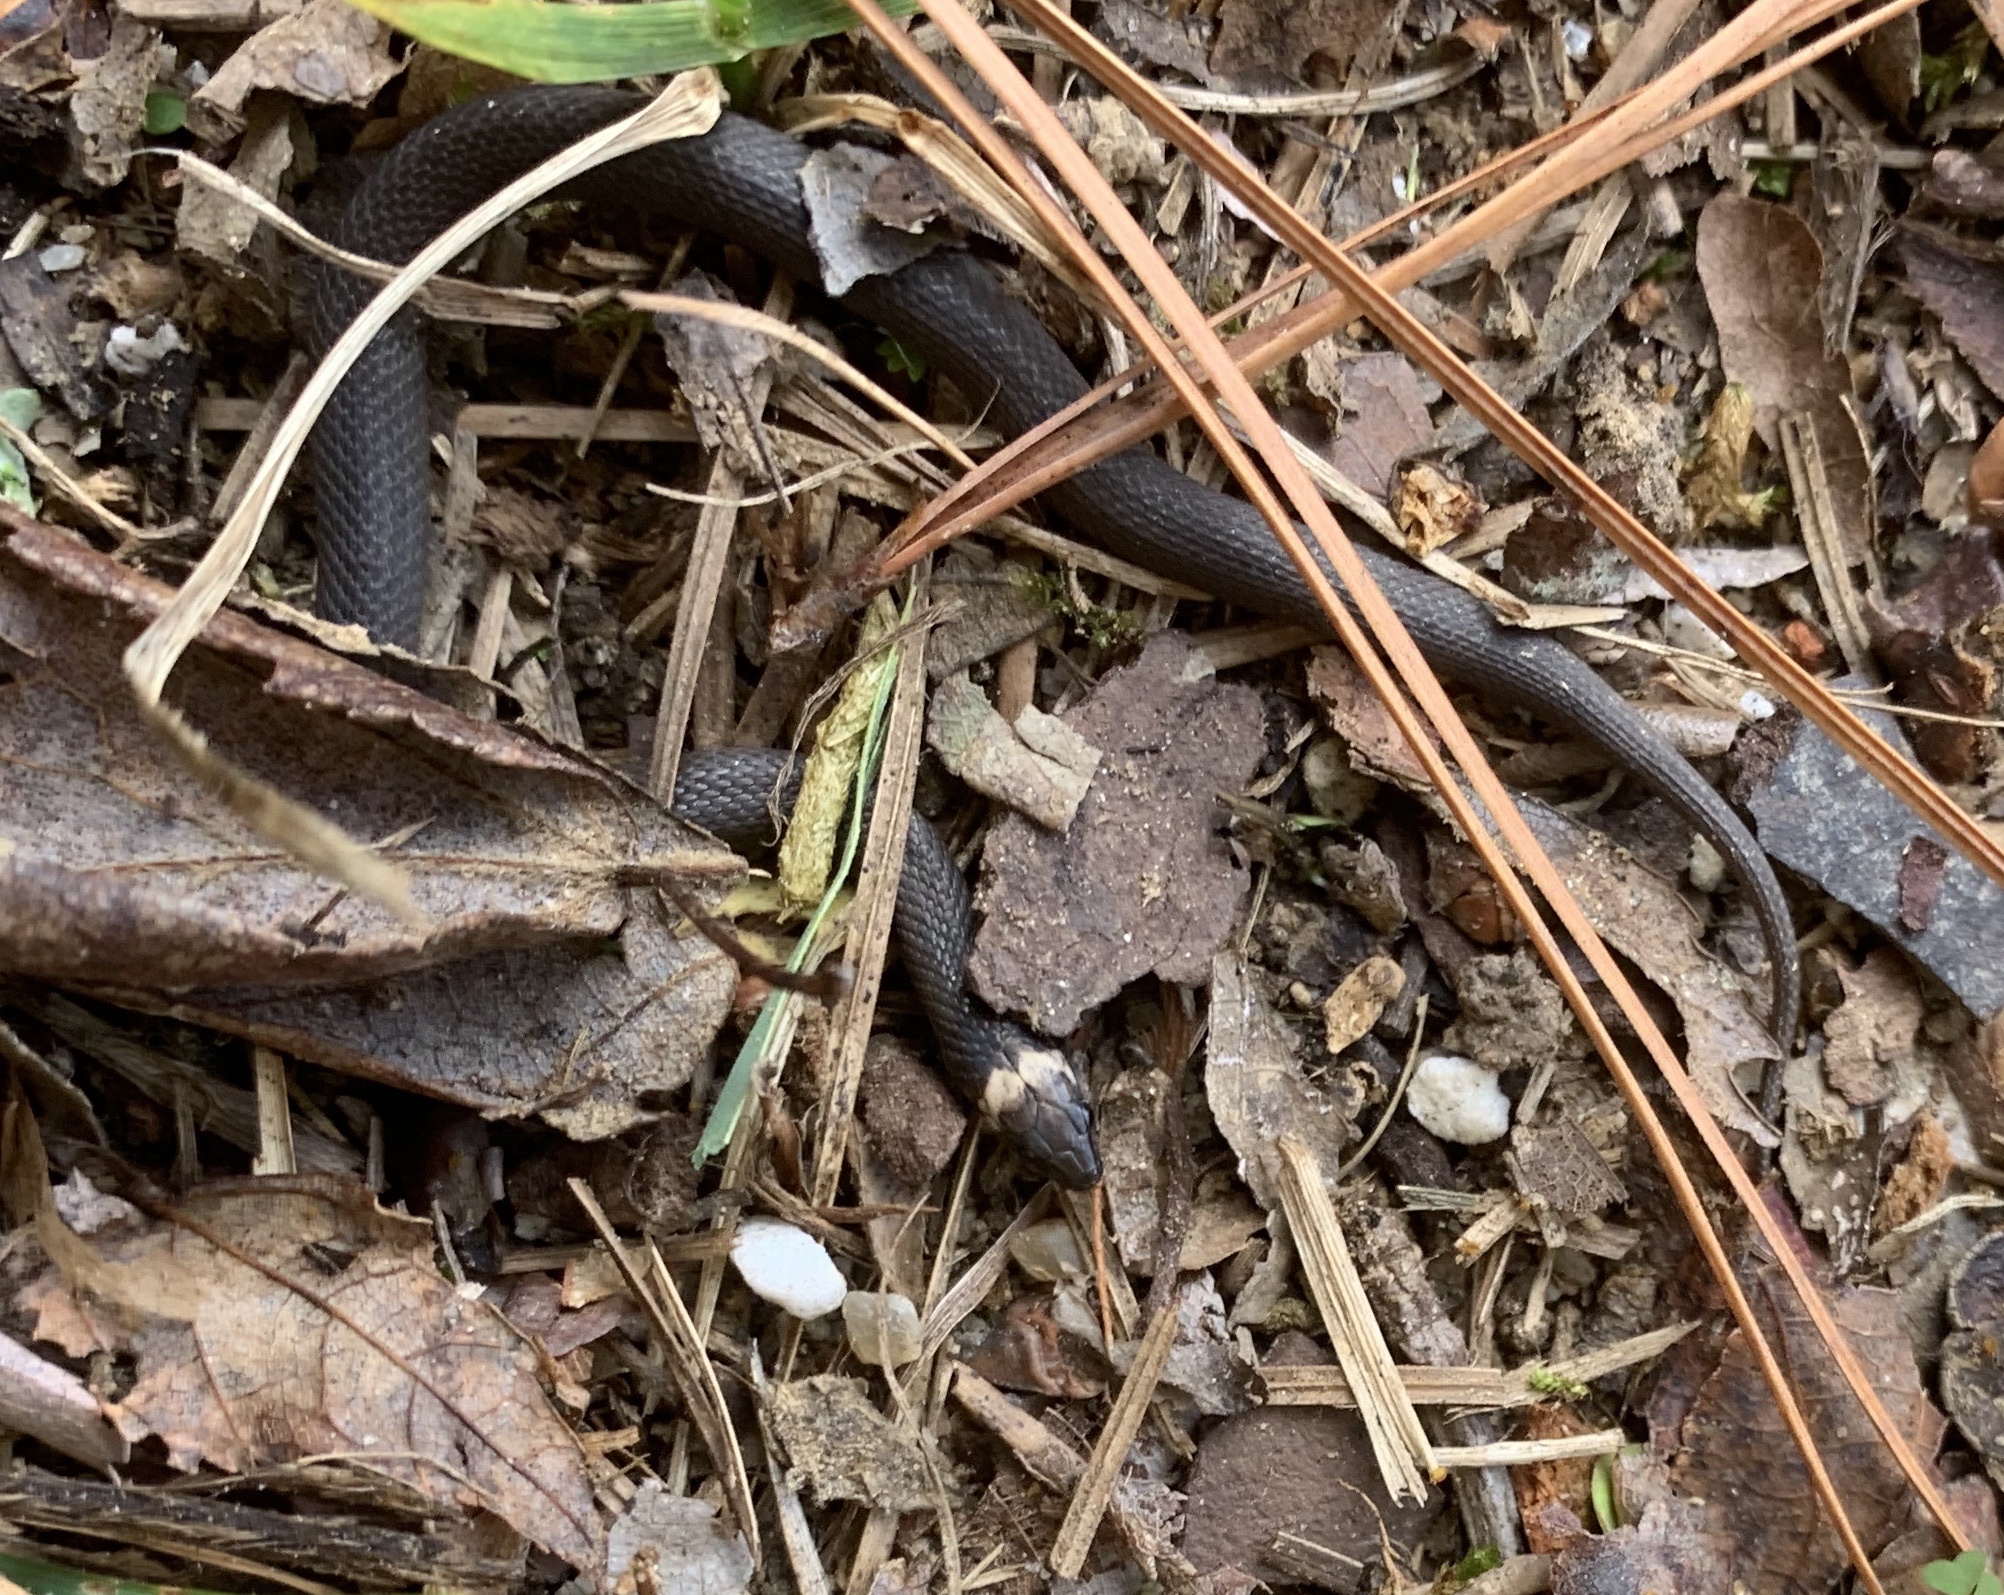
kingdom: Animalia
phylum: Chordata
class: Squamata
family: Colubridae
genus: Haldea
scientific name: Haldea striatula
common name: Rough earth snake
